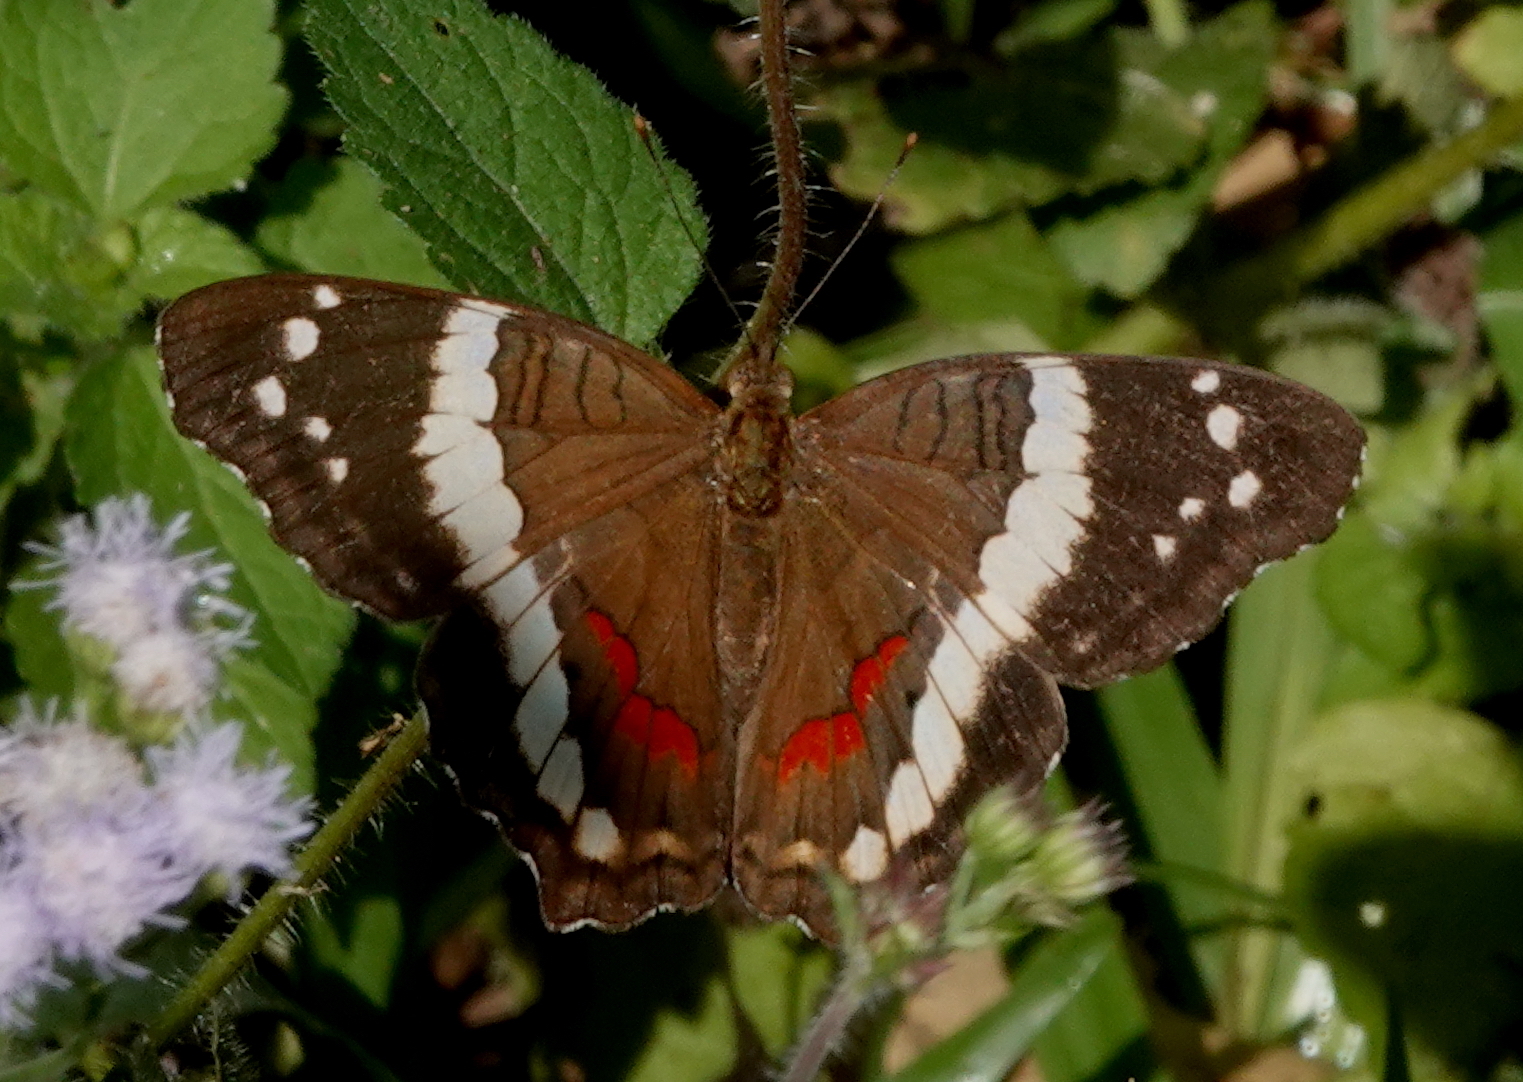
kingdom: Animalia
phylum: Arthropoda
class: Insecta
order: Lepidoptera
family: Nymphalidae
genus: Anartia
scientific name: Anartia fatima
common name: Banded peacock
